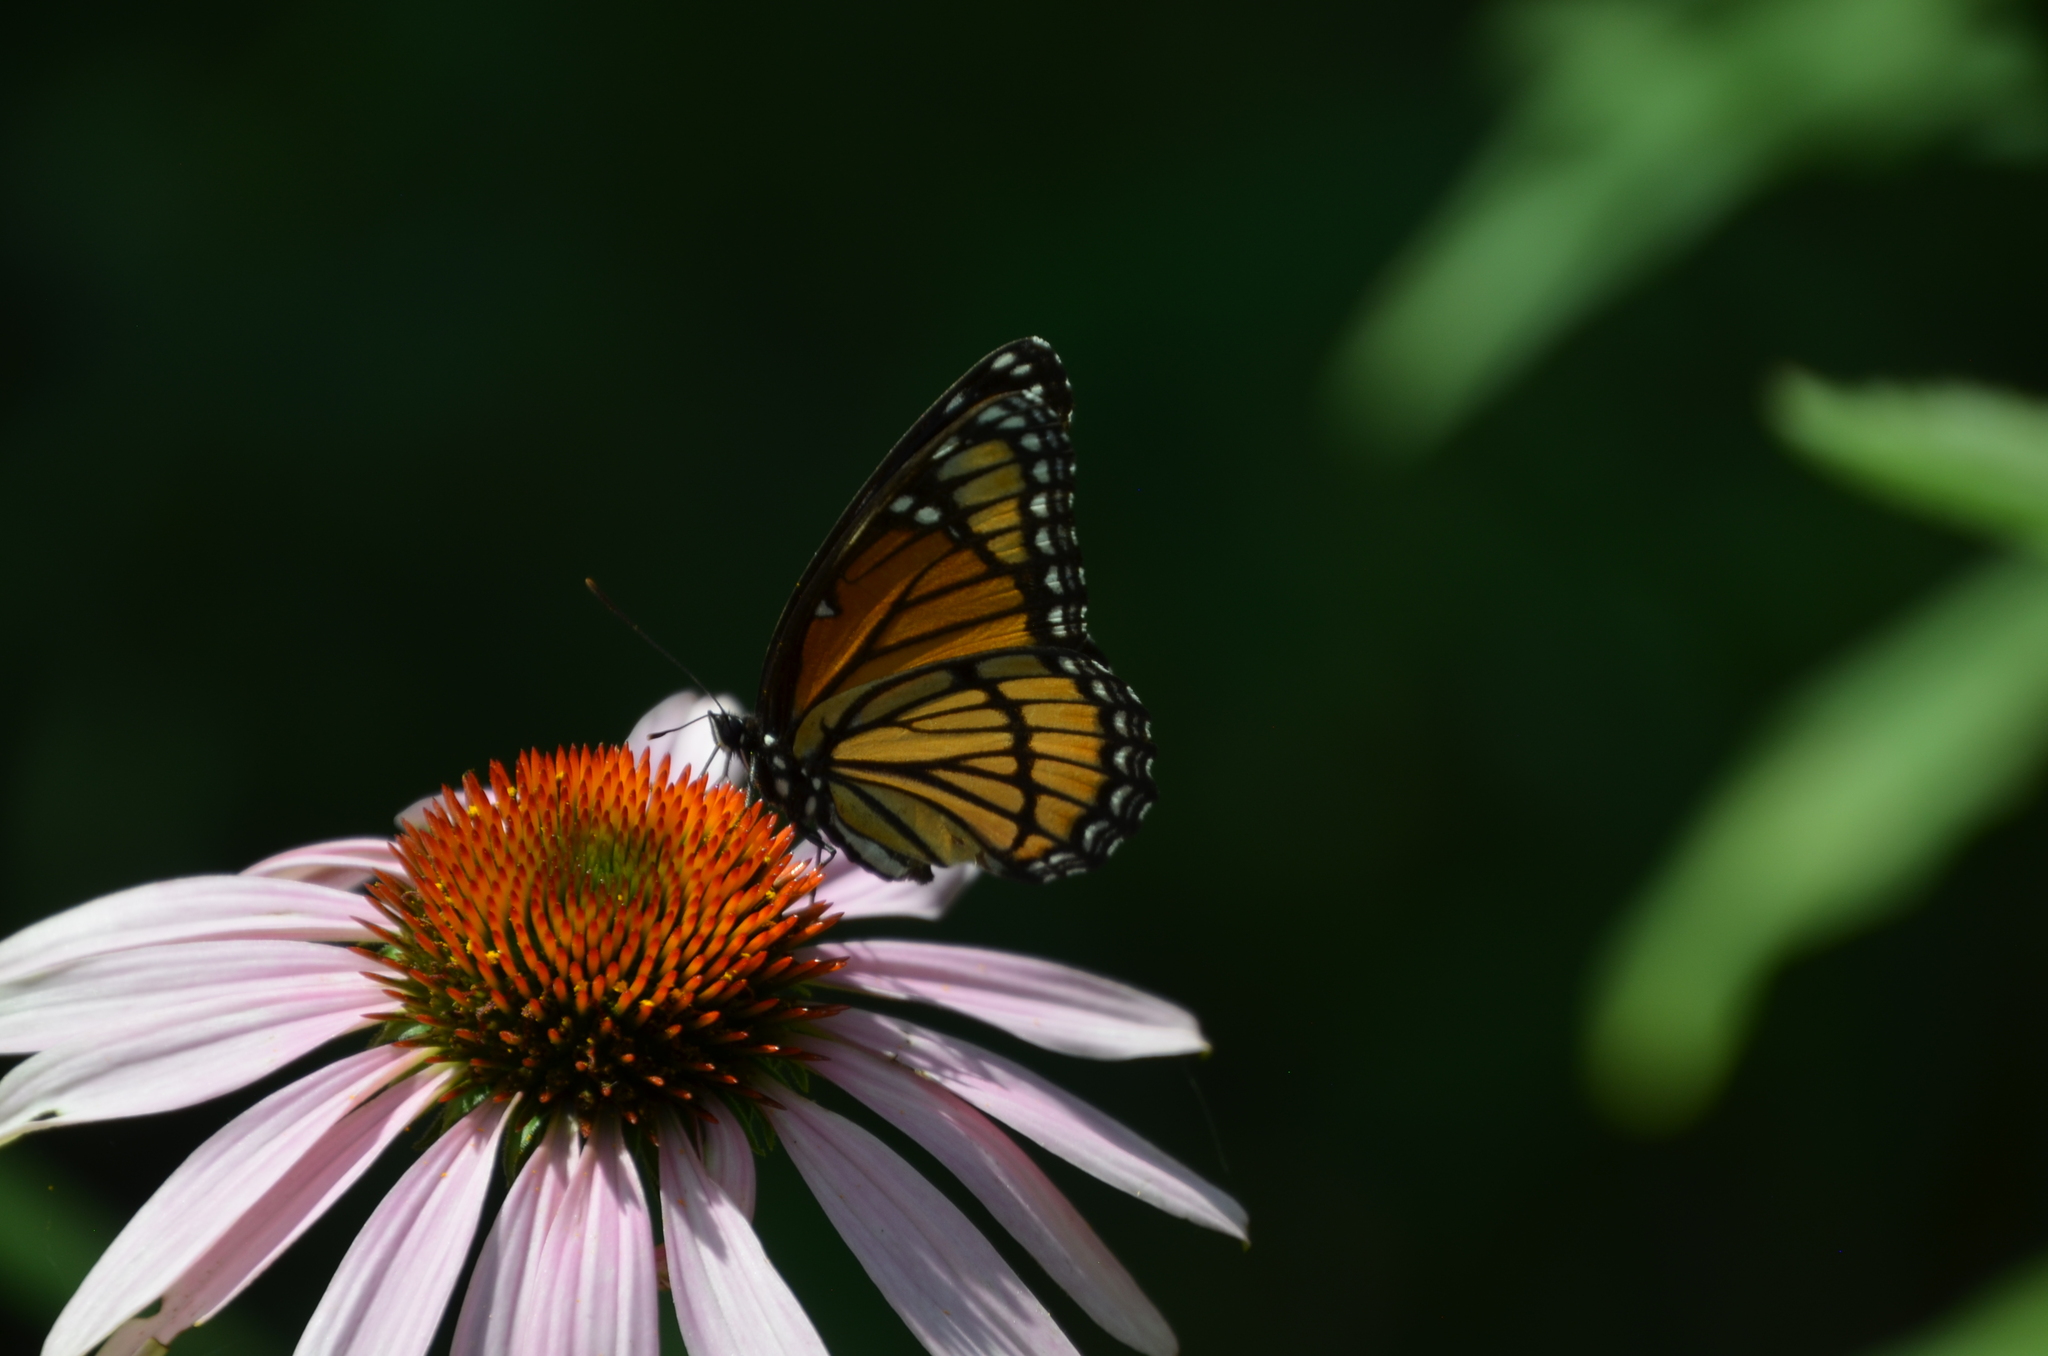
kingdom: Animalia
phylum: Arthropoda
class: Insecta
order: Lepidoptera
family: Nymphalidae
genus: Limenitis
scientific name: Limenitis archippus
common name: Viceroy
